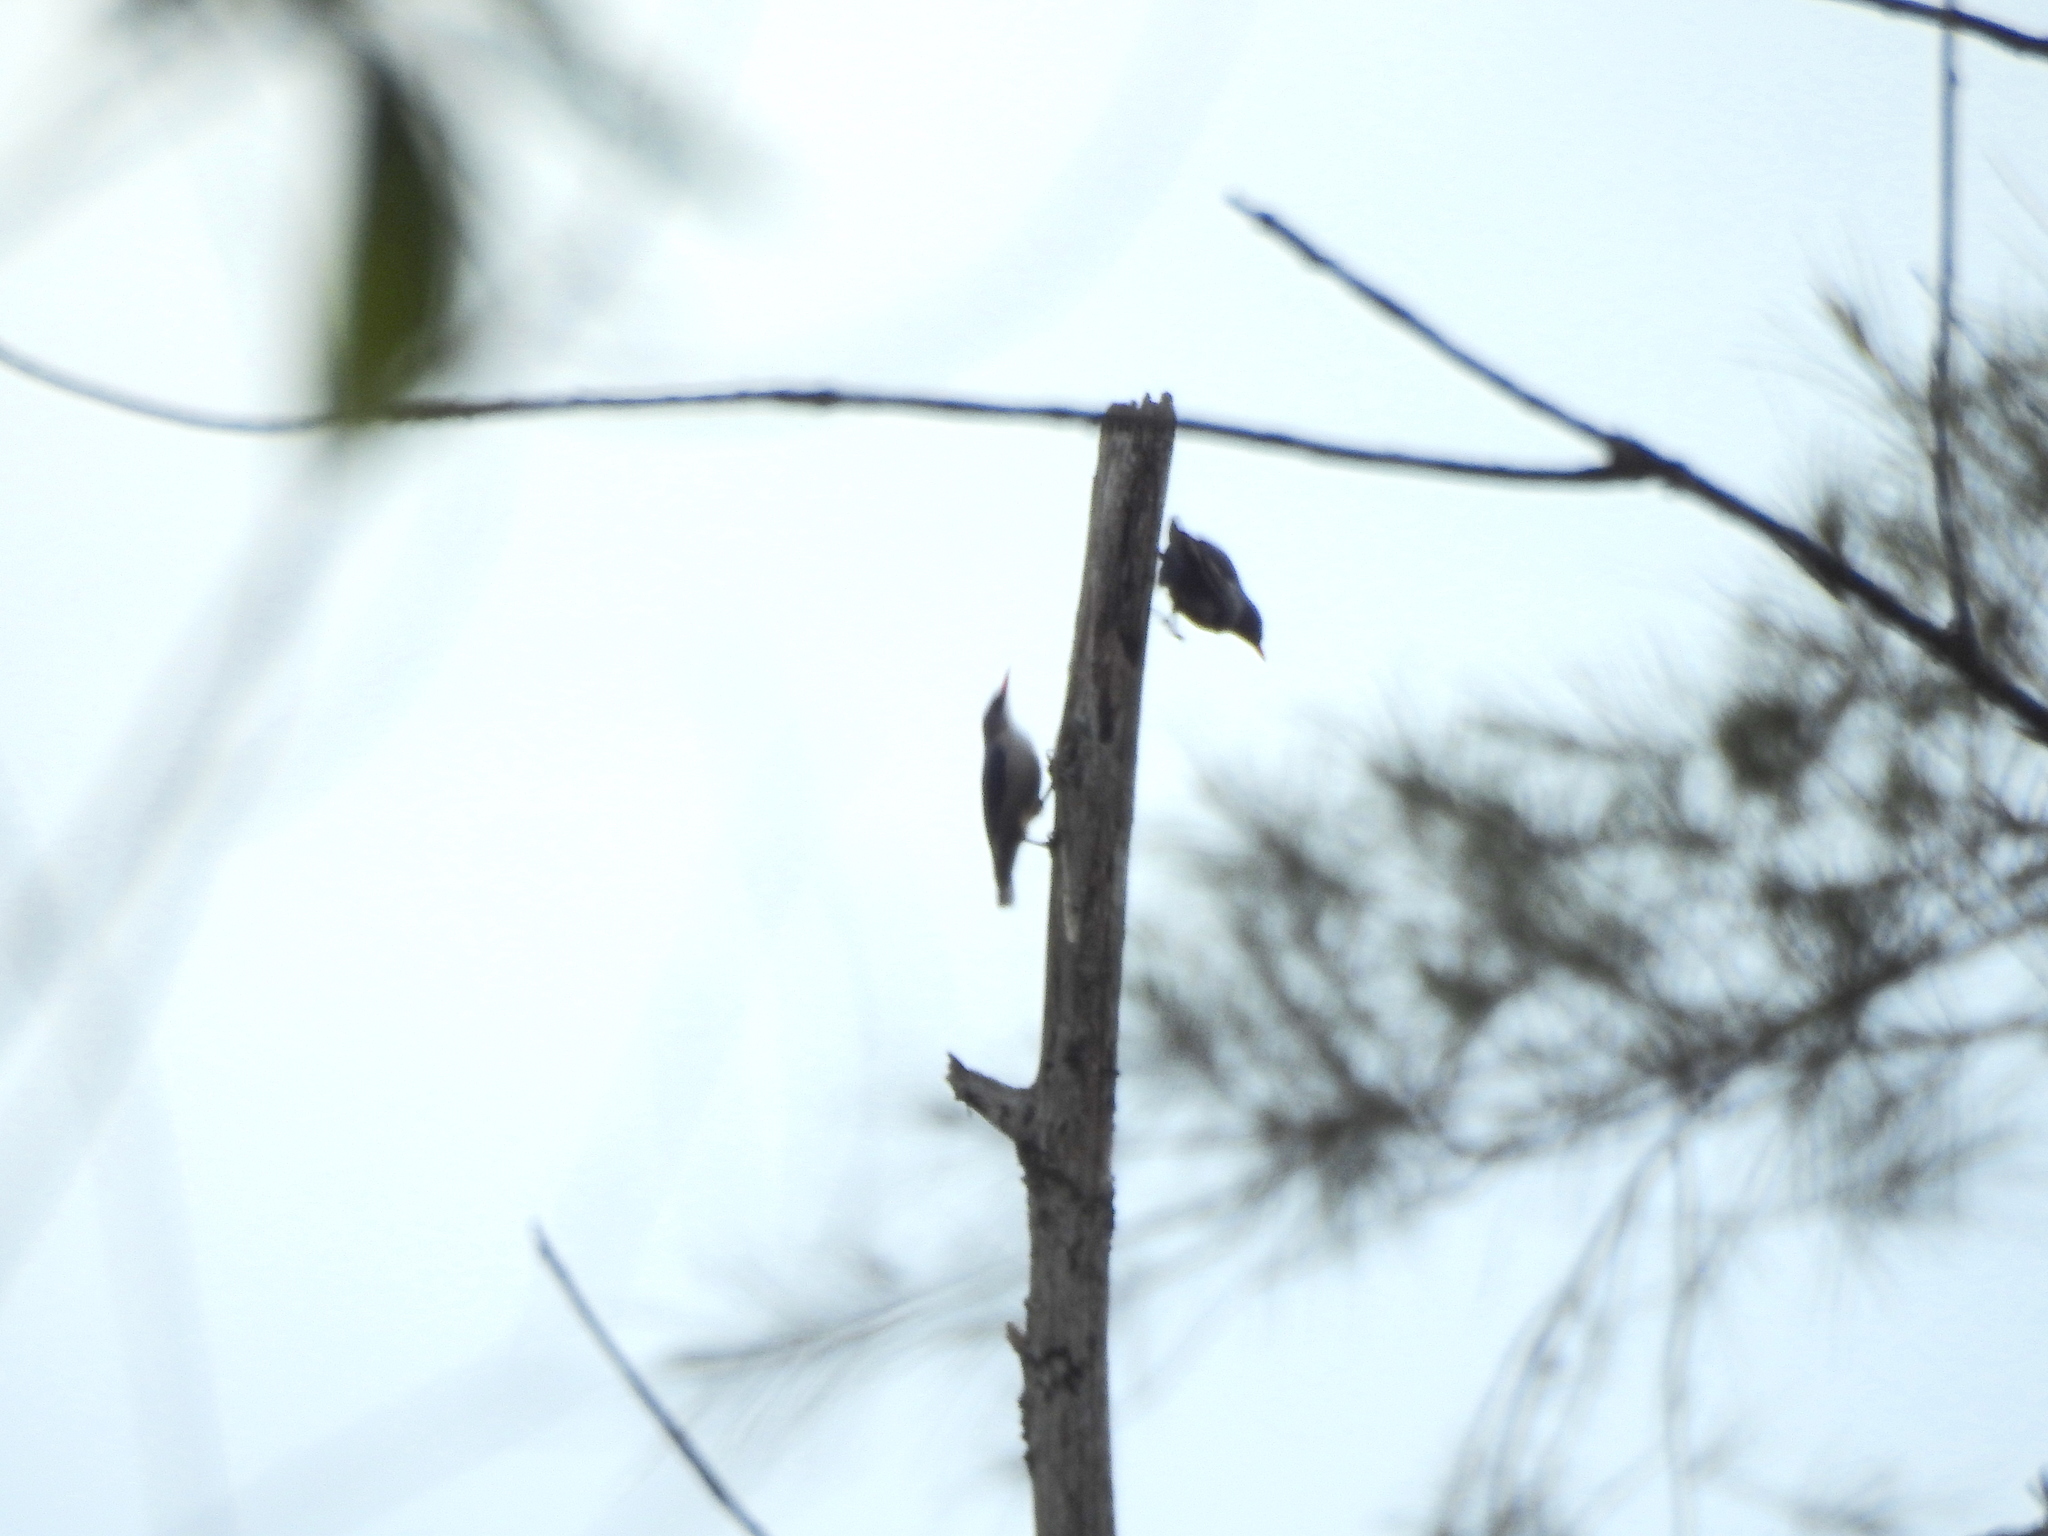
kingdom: Animalia
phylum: Chordata
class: Aves
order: Passeriformes
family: Sittidae
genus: Sitta
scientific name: Sitta frontalis
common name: Velvet-fronted nuthatch
